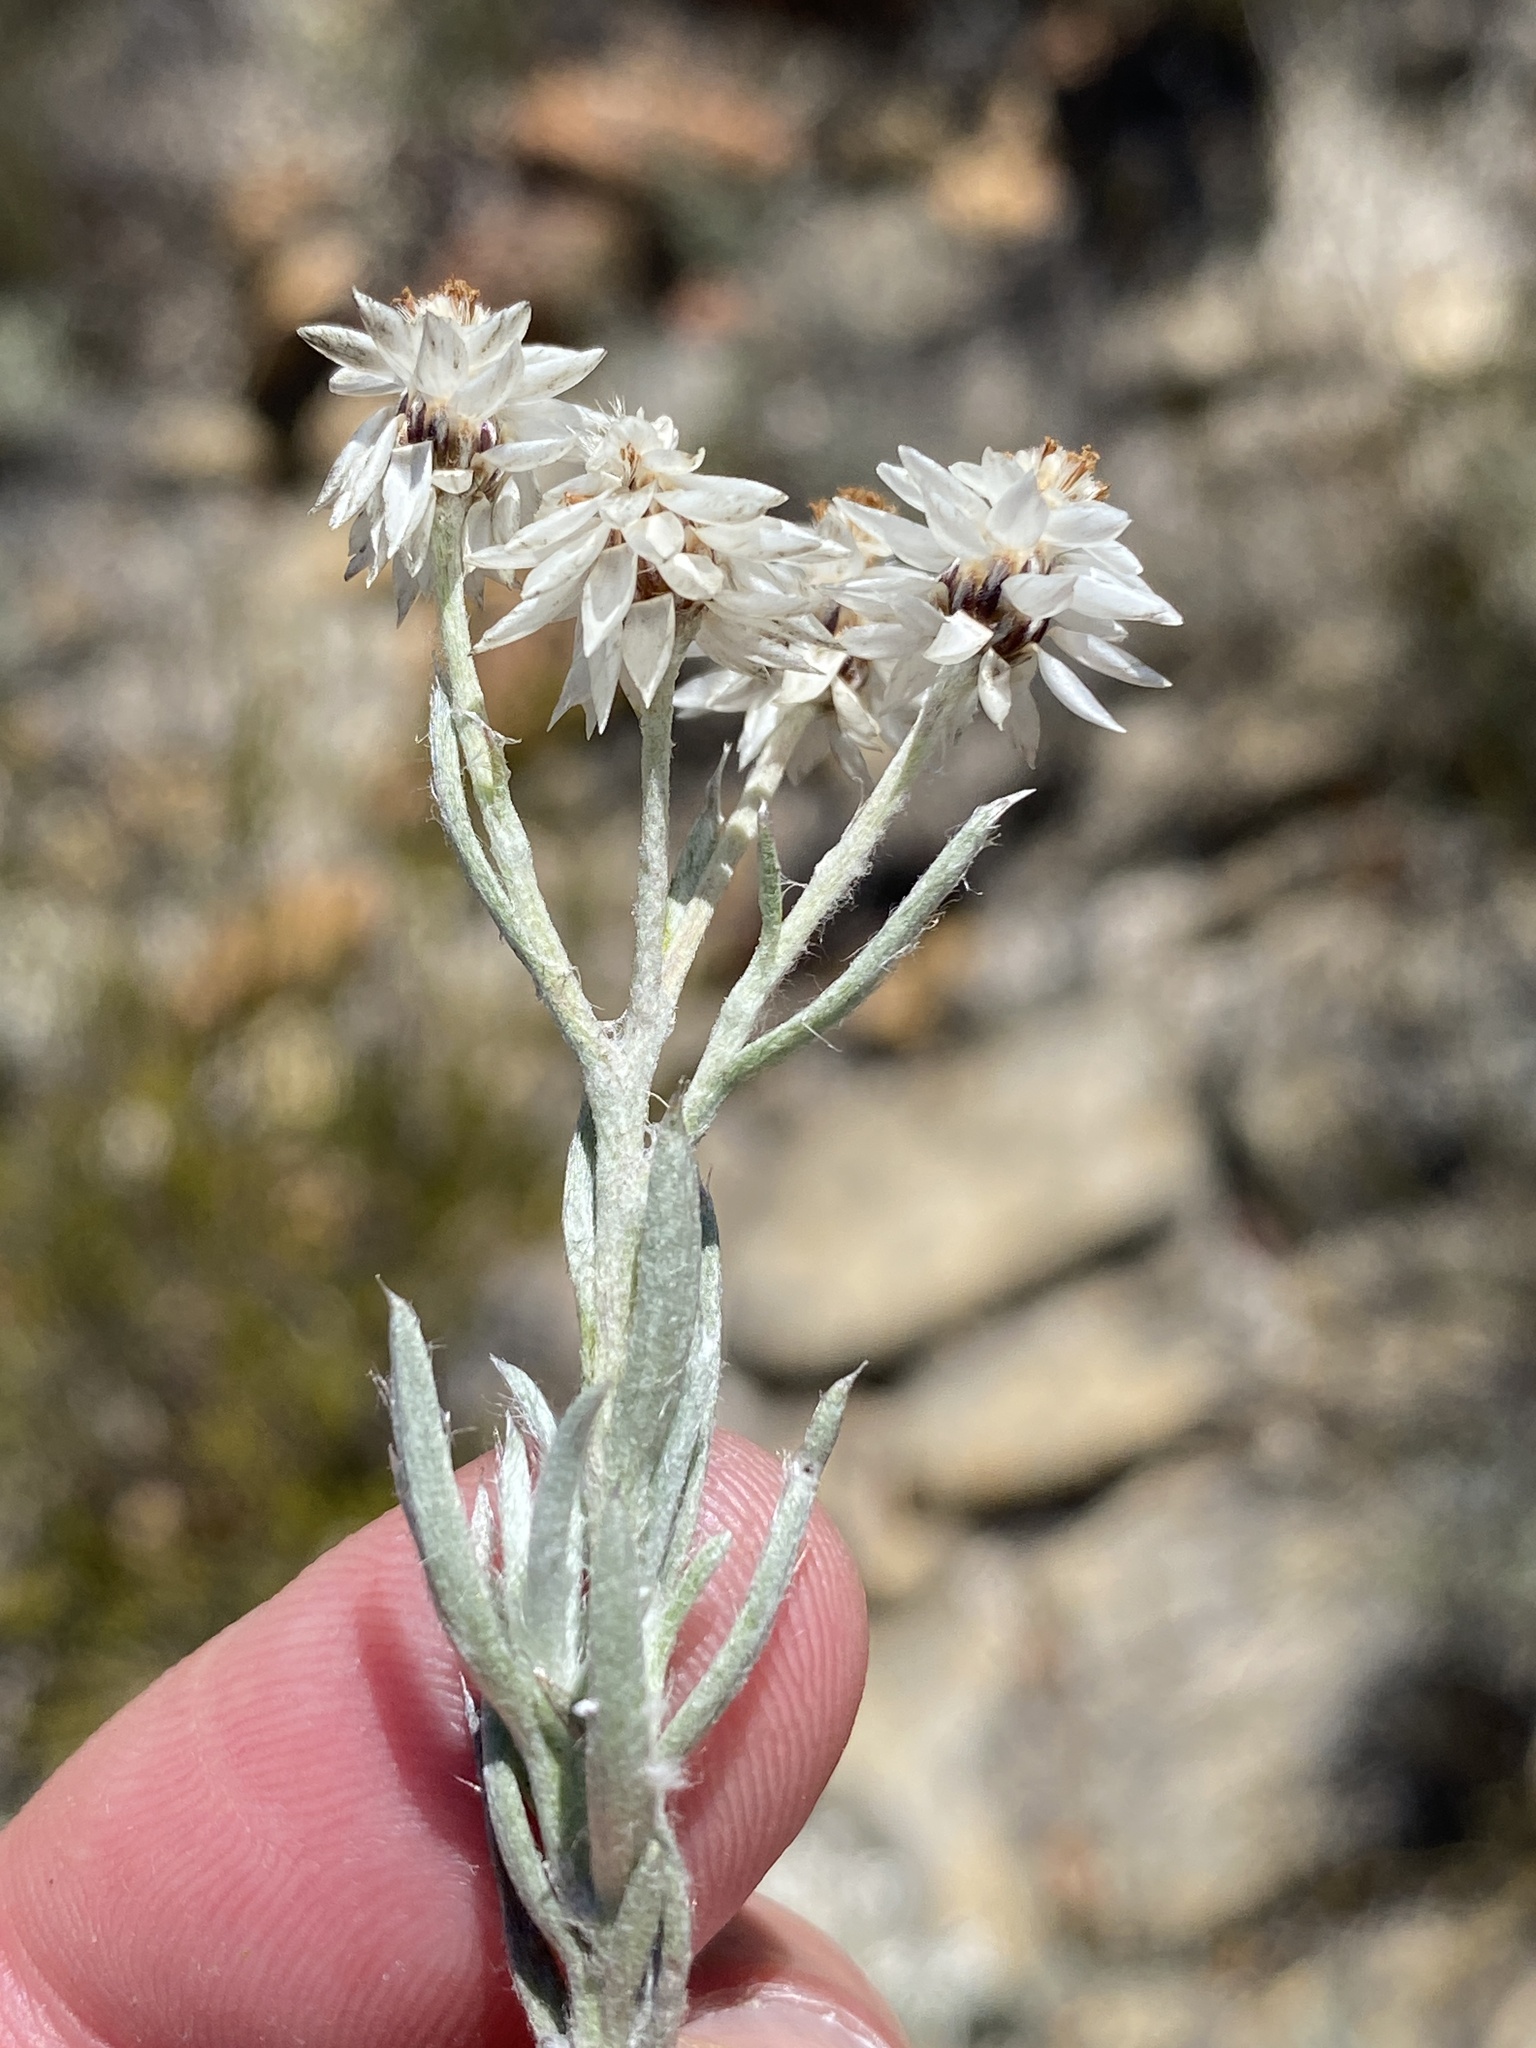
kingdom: Plantae
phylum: Tracheophyta
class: Magnoliopsida
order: Asterales
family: Asteraceae
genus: Achyranthemum
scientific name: Achyranthemum paniculatum
